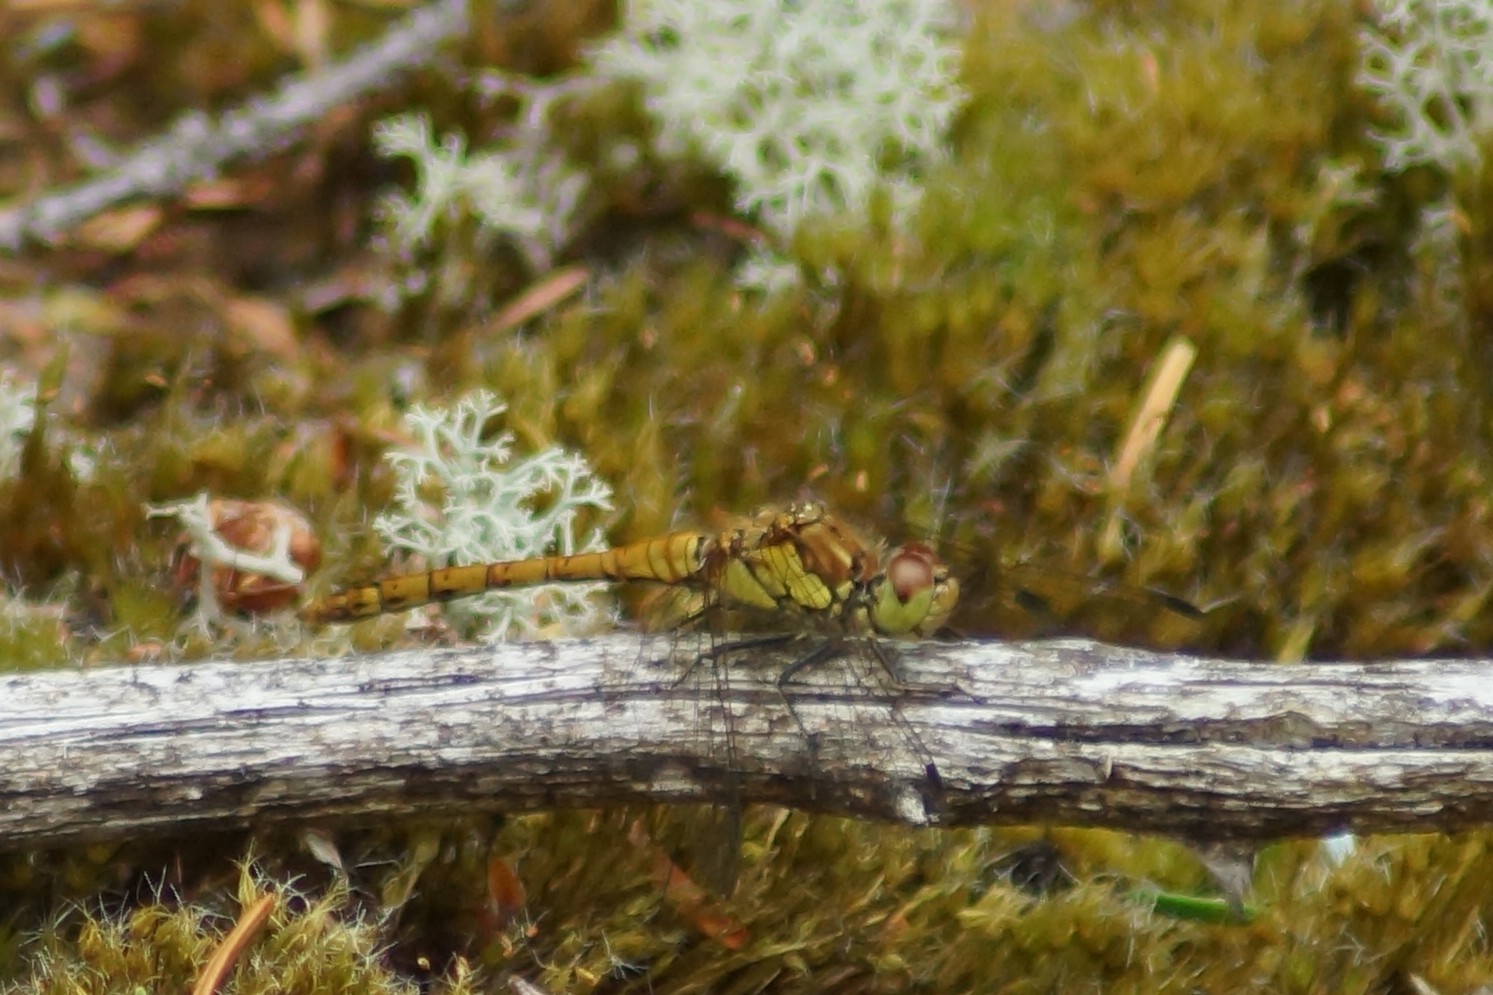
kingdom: Animalia
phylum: Arthropoda
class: Insecta
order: Odonata
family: Libellulidae
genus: Sympetrum
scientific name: Sympetrum striolatum
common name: Common darter
